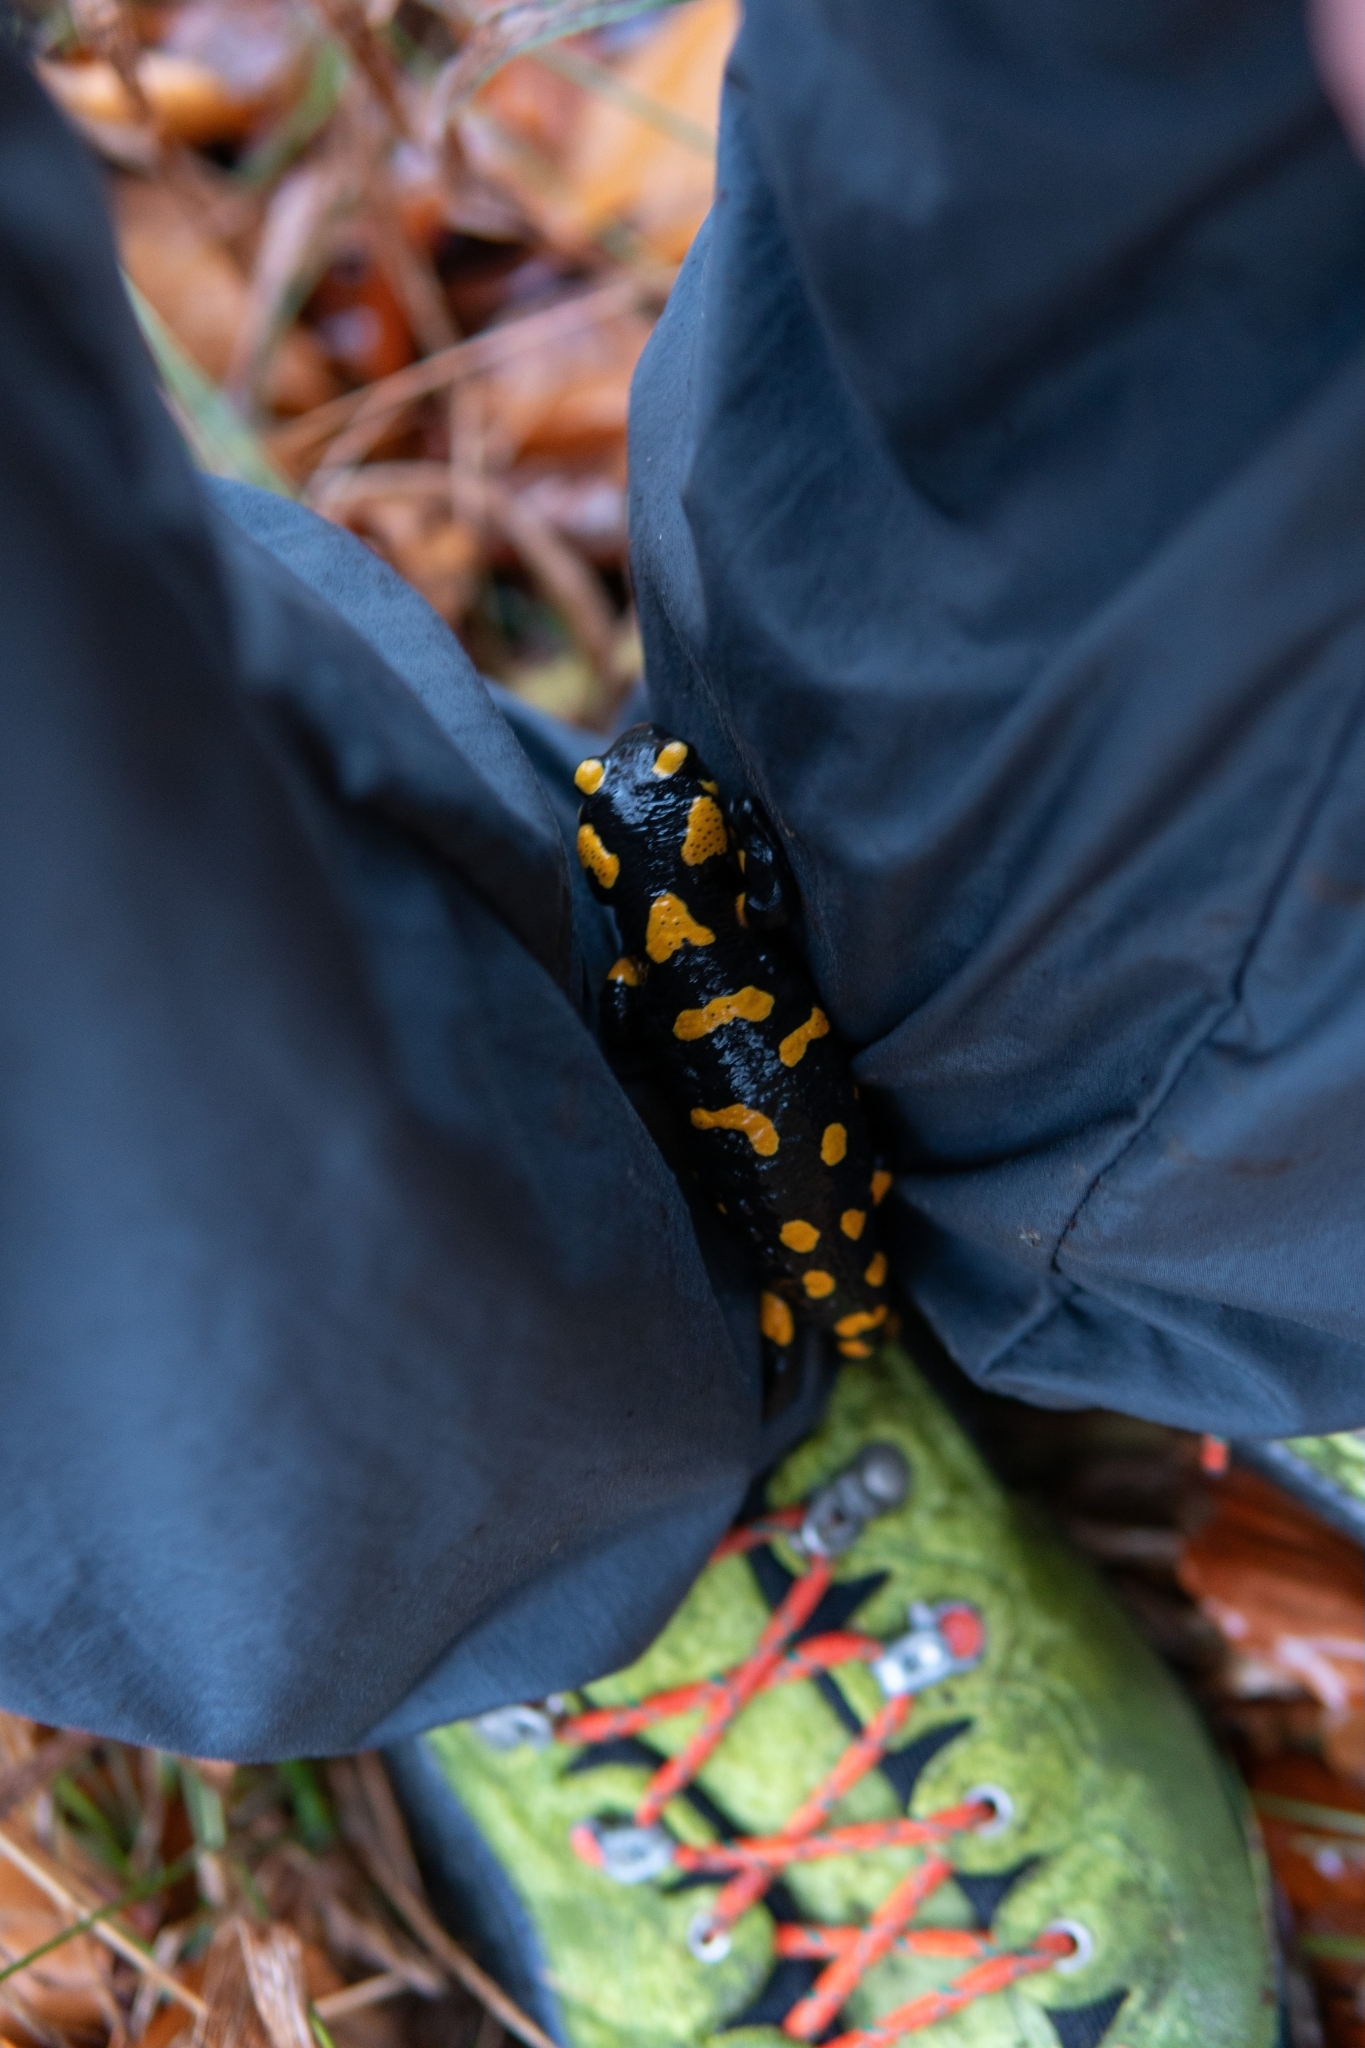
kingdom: Animalia
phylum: Chordata
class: Amphibia
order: Caudata
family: Salamandridae
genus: Salamandra
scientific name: Salamandra salamandra
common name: Fire salamander
